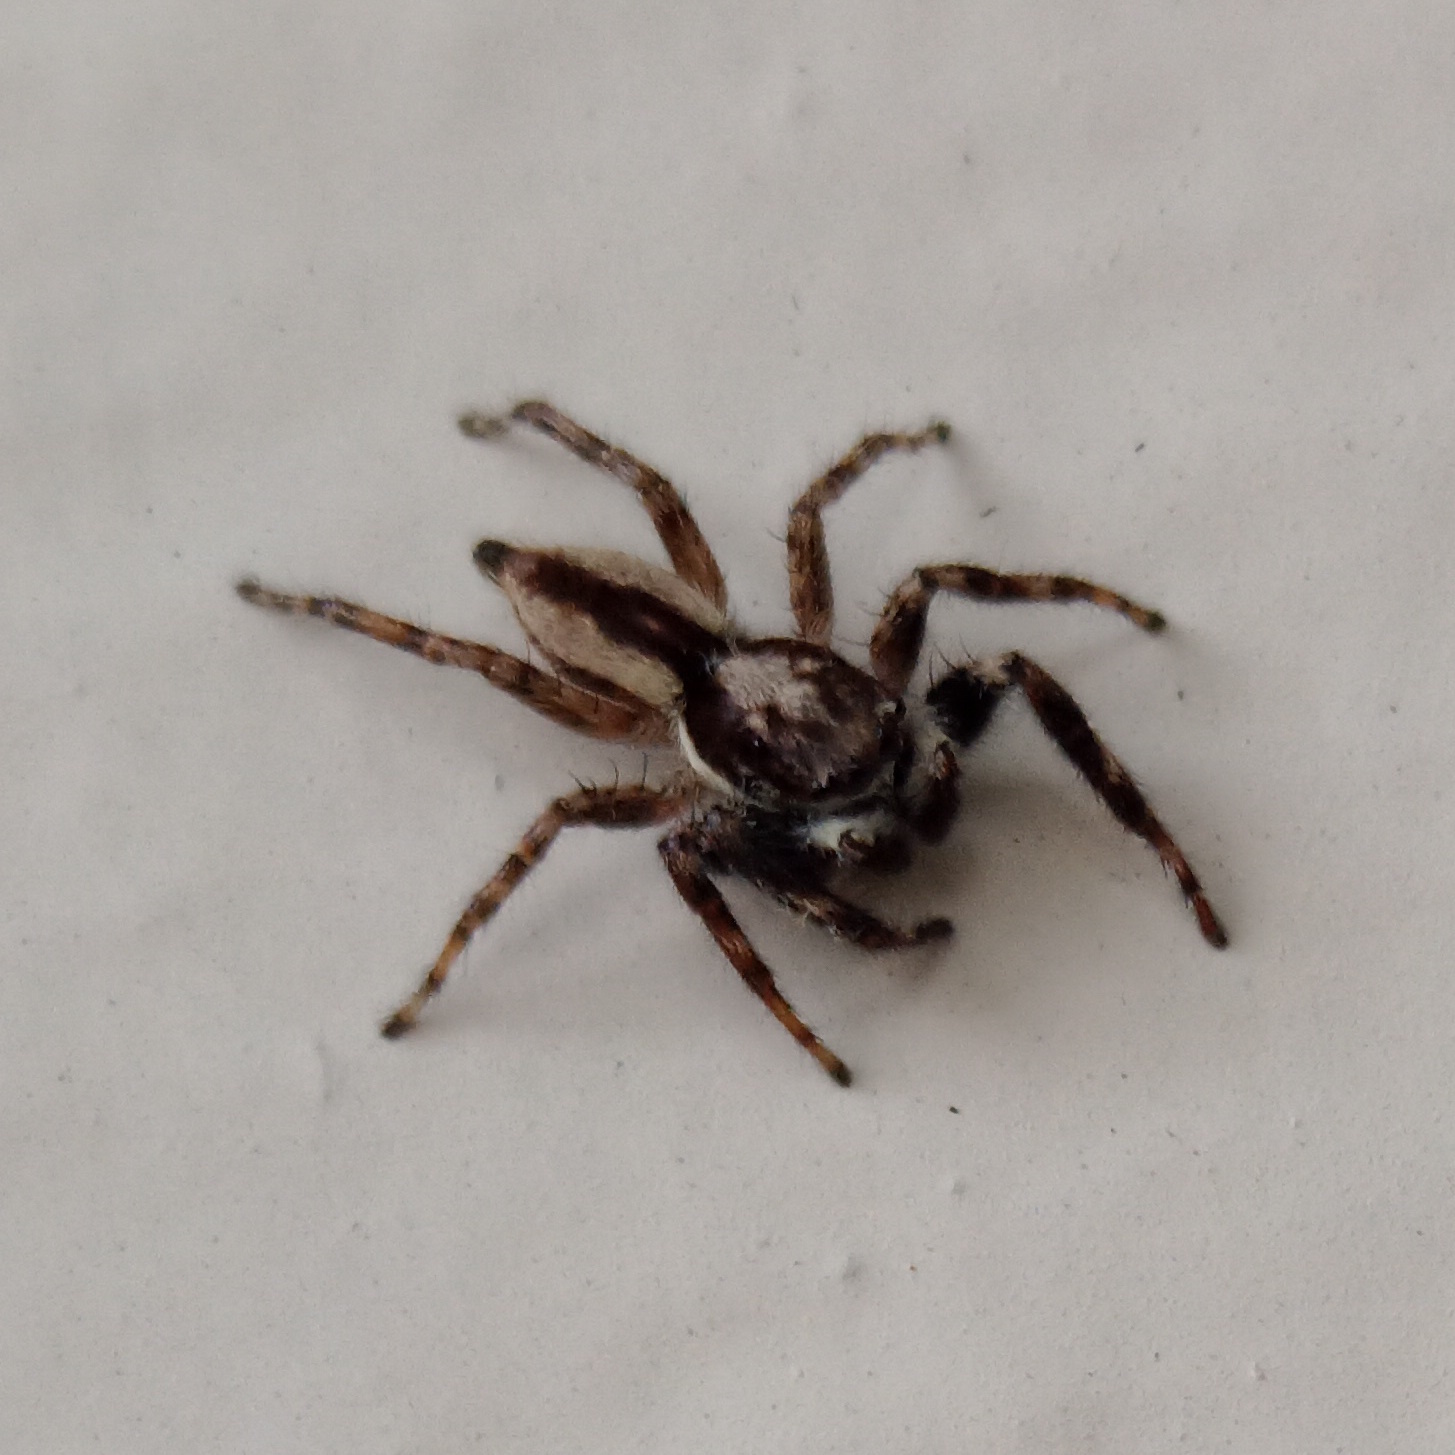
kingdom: Animalia
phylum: Arthropoda
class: Arachnida
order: Araneae
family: Salticidae
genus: Menemerus
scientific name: Menemerus bivittatus
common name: Gray wall jumper
